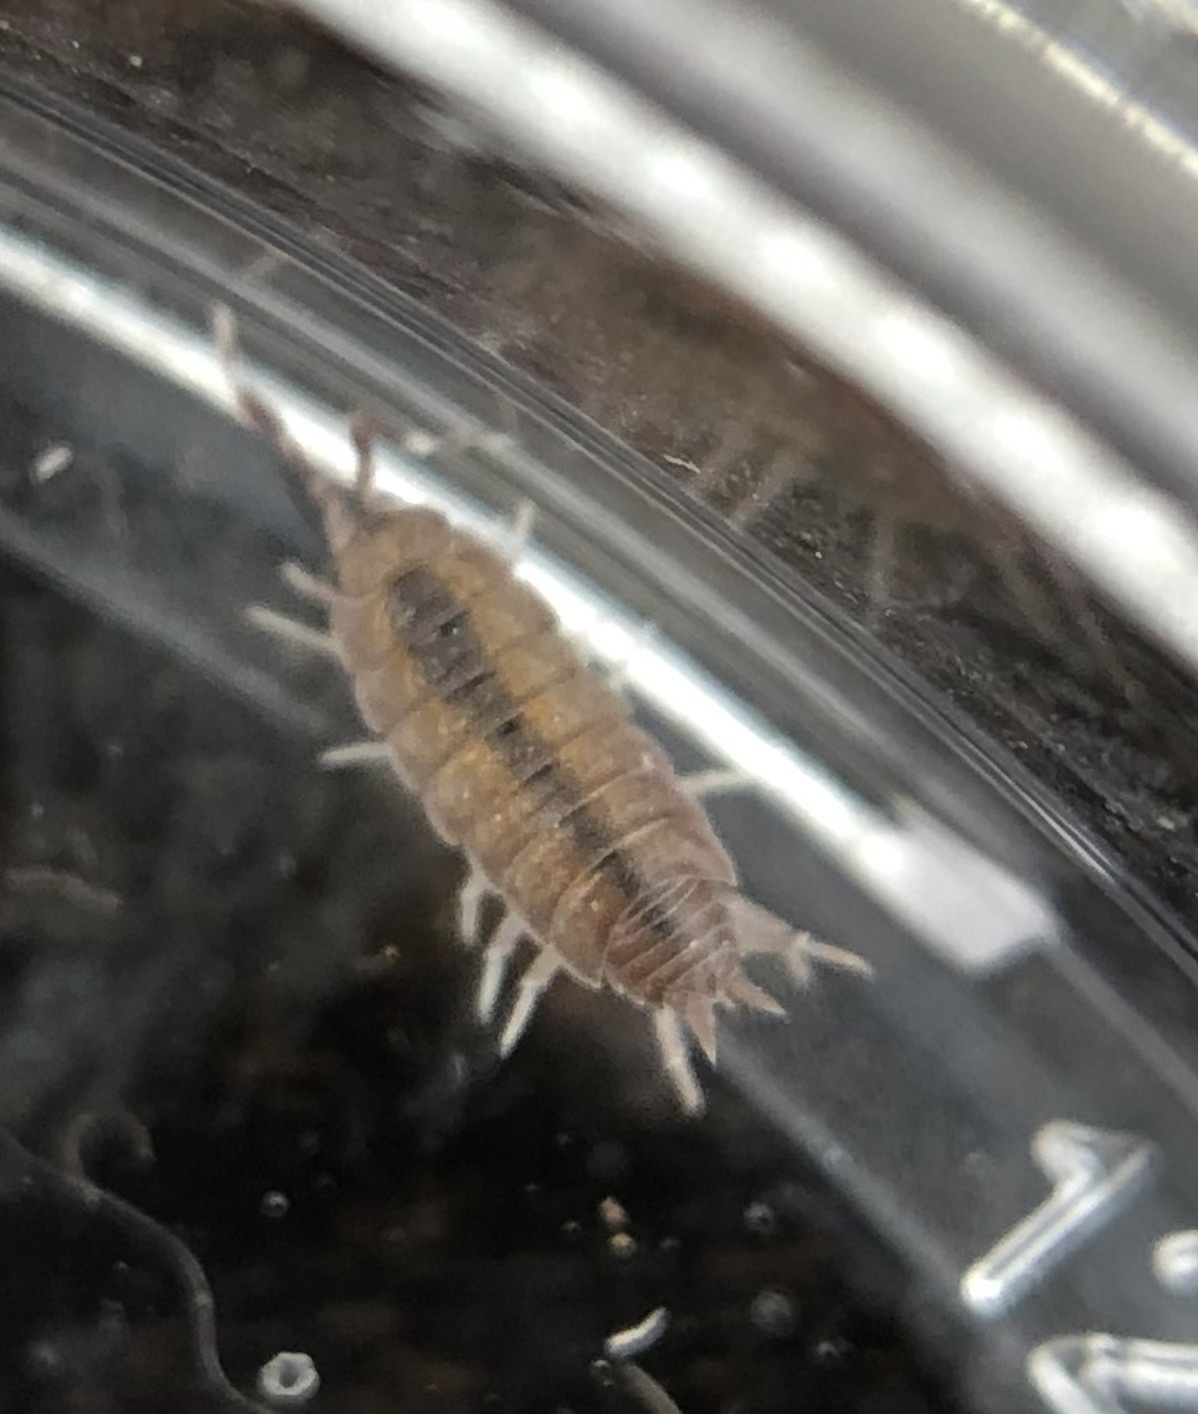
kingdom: Animalia
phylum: Arthropoda
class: Malacostraca
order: Isopoda
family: Porcellionidae
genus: Porcellionides
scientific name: Porcellionides pruinosus
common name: Plum woodlouse
